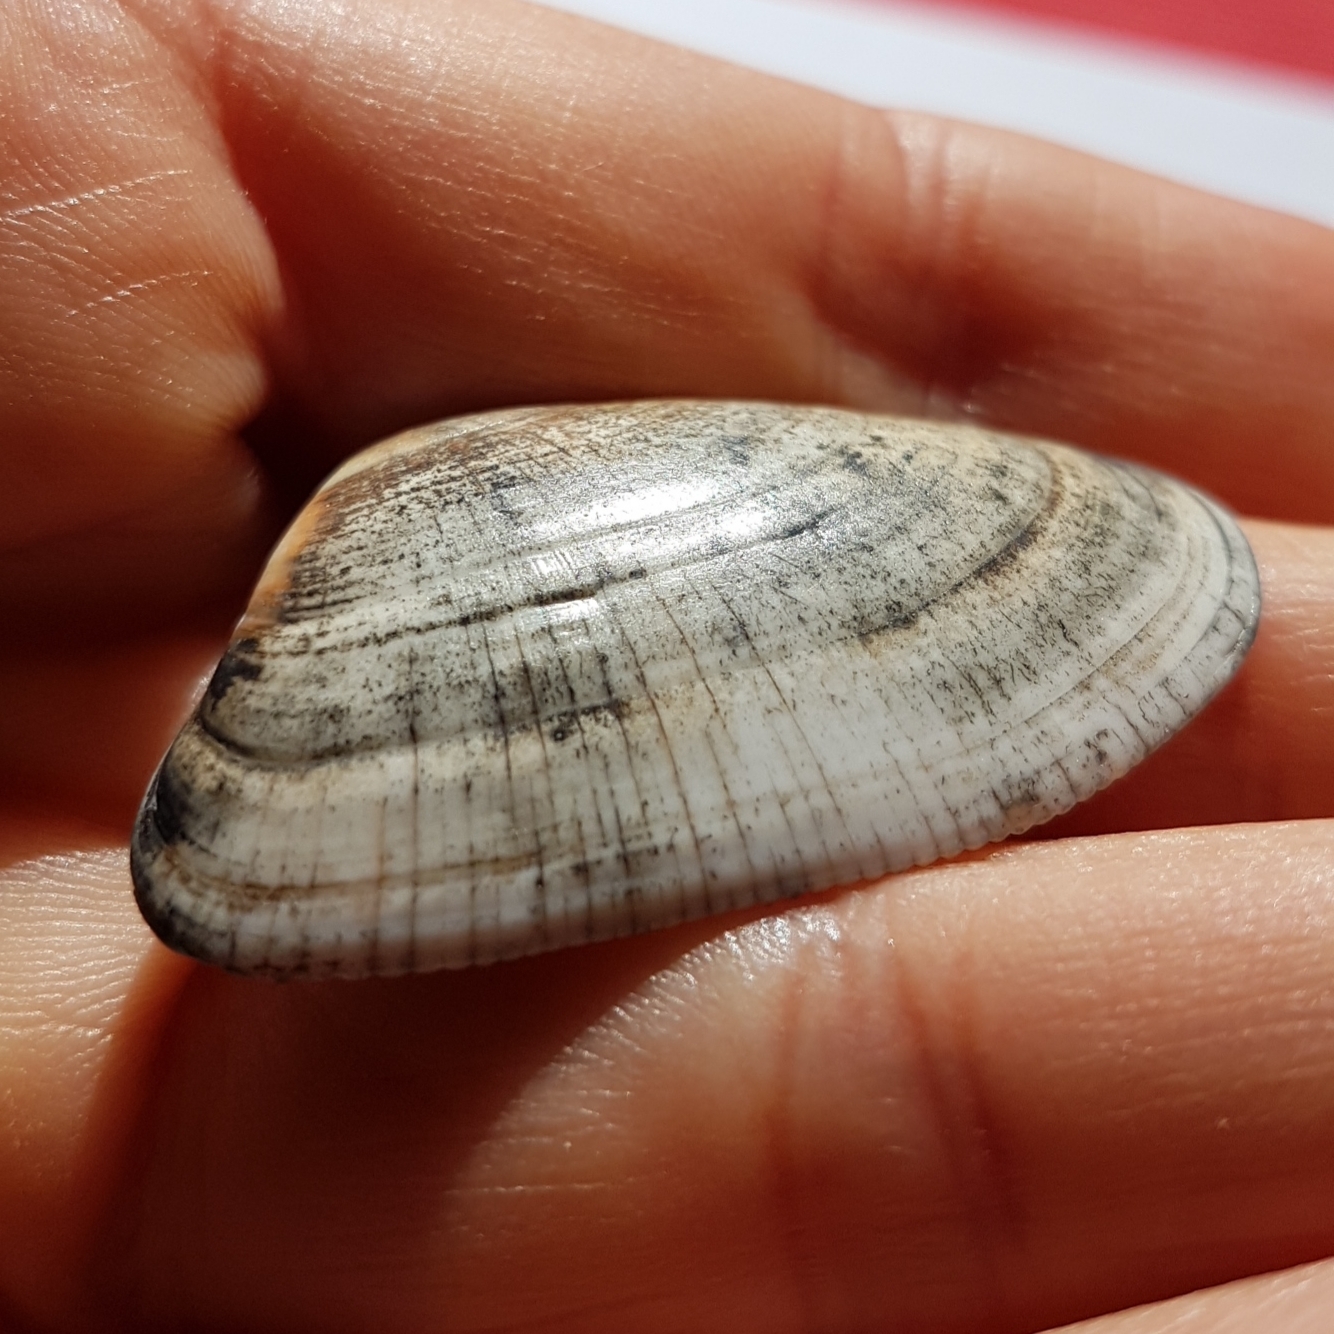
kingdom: Animalia
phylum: Mollusca
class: Bivalvia
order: Cardiida
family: Donacidae
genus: Donax
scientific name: Donax trunculus
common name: Truncate donax
